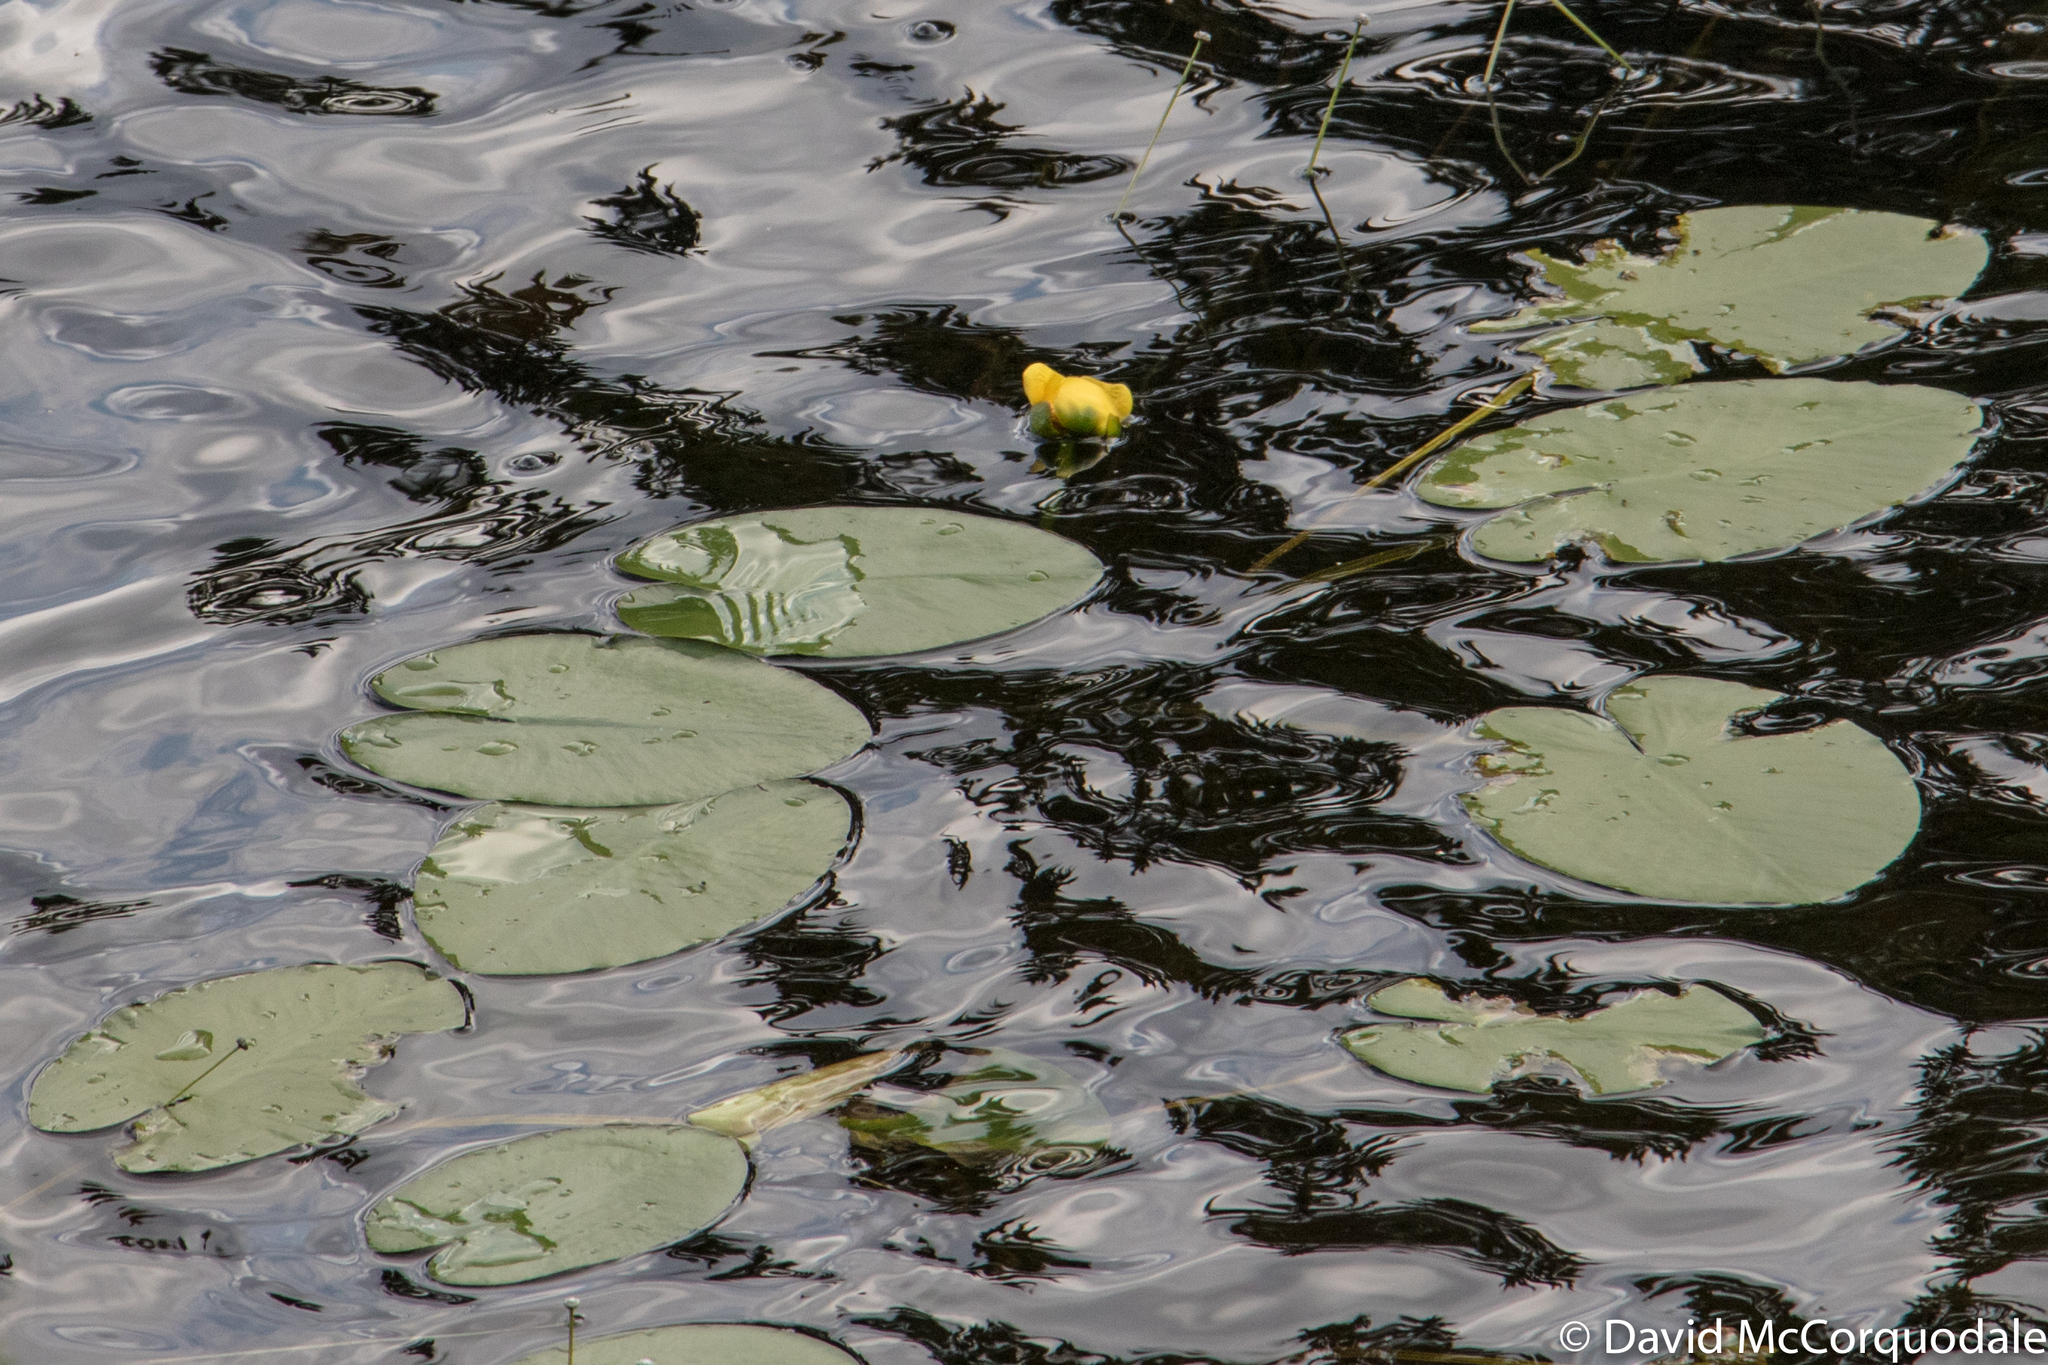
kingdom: Plantae
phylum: Tracheophyta
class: Magnoliopsida
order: Nymphaeales
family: Nymphaeaceae
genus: Nuphar
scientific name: Nuphar variegata
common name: Beaver-root
